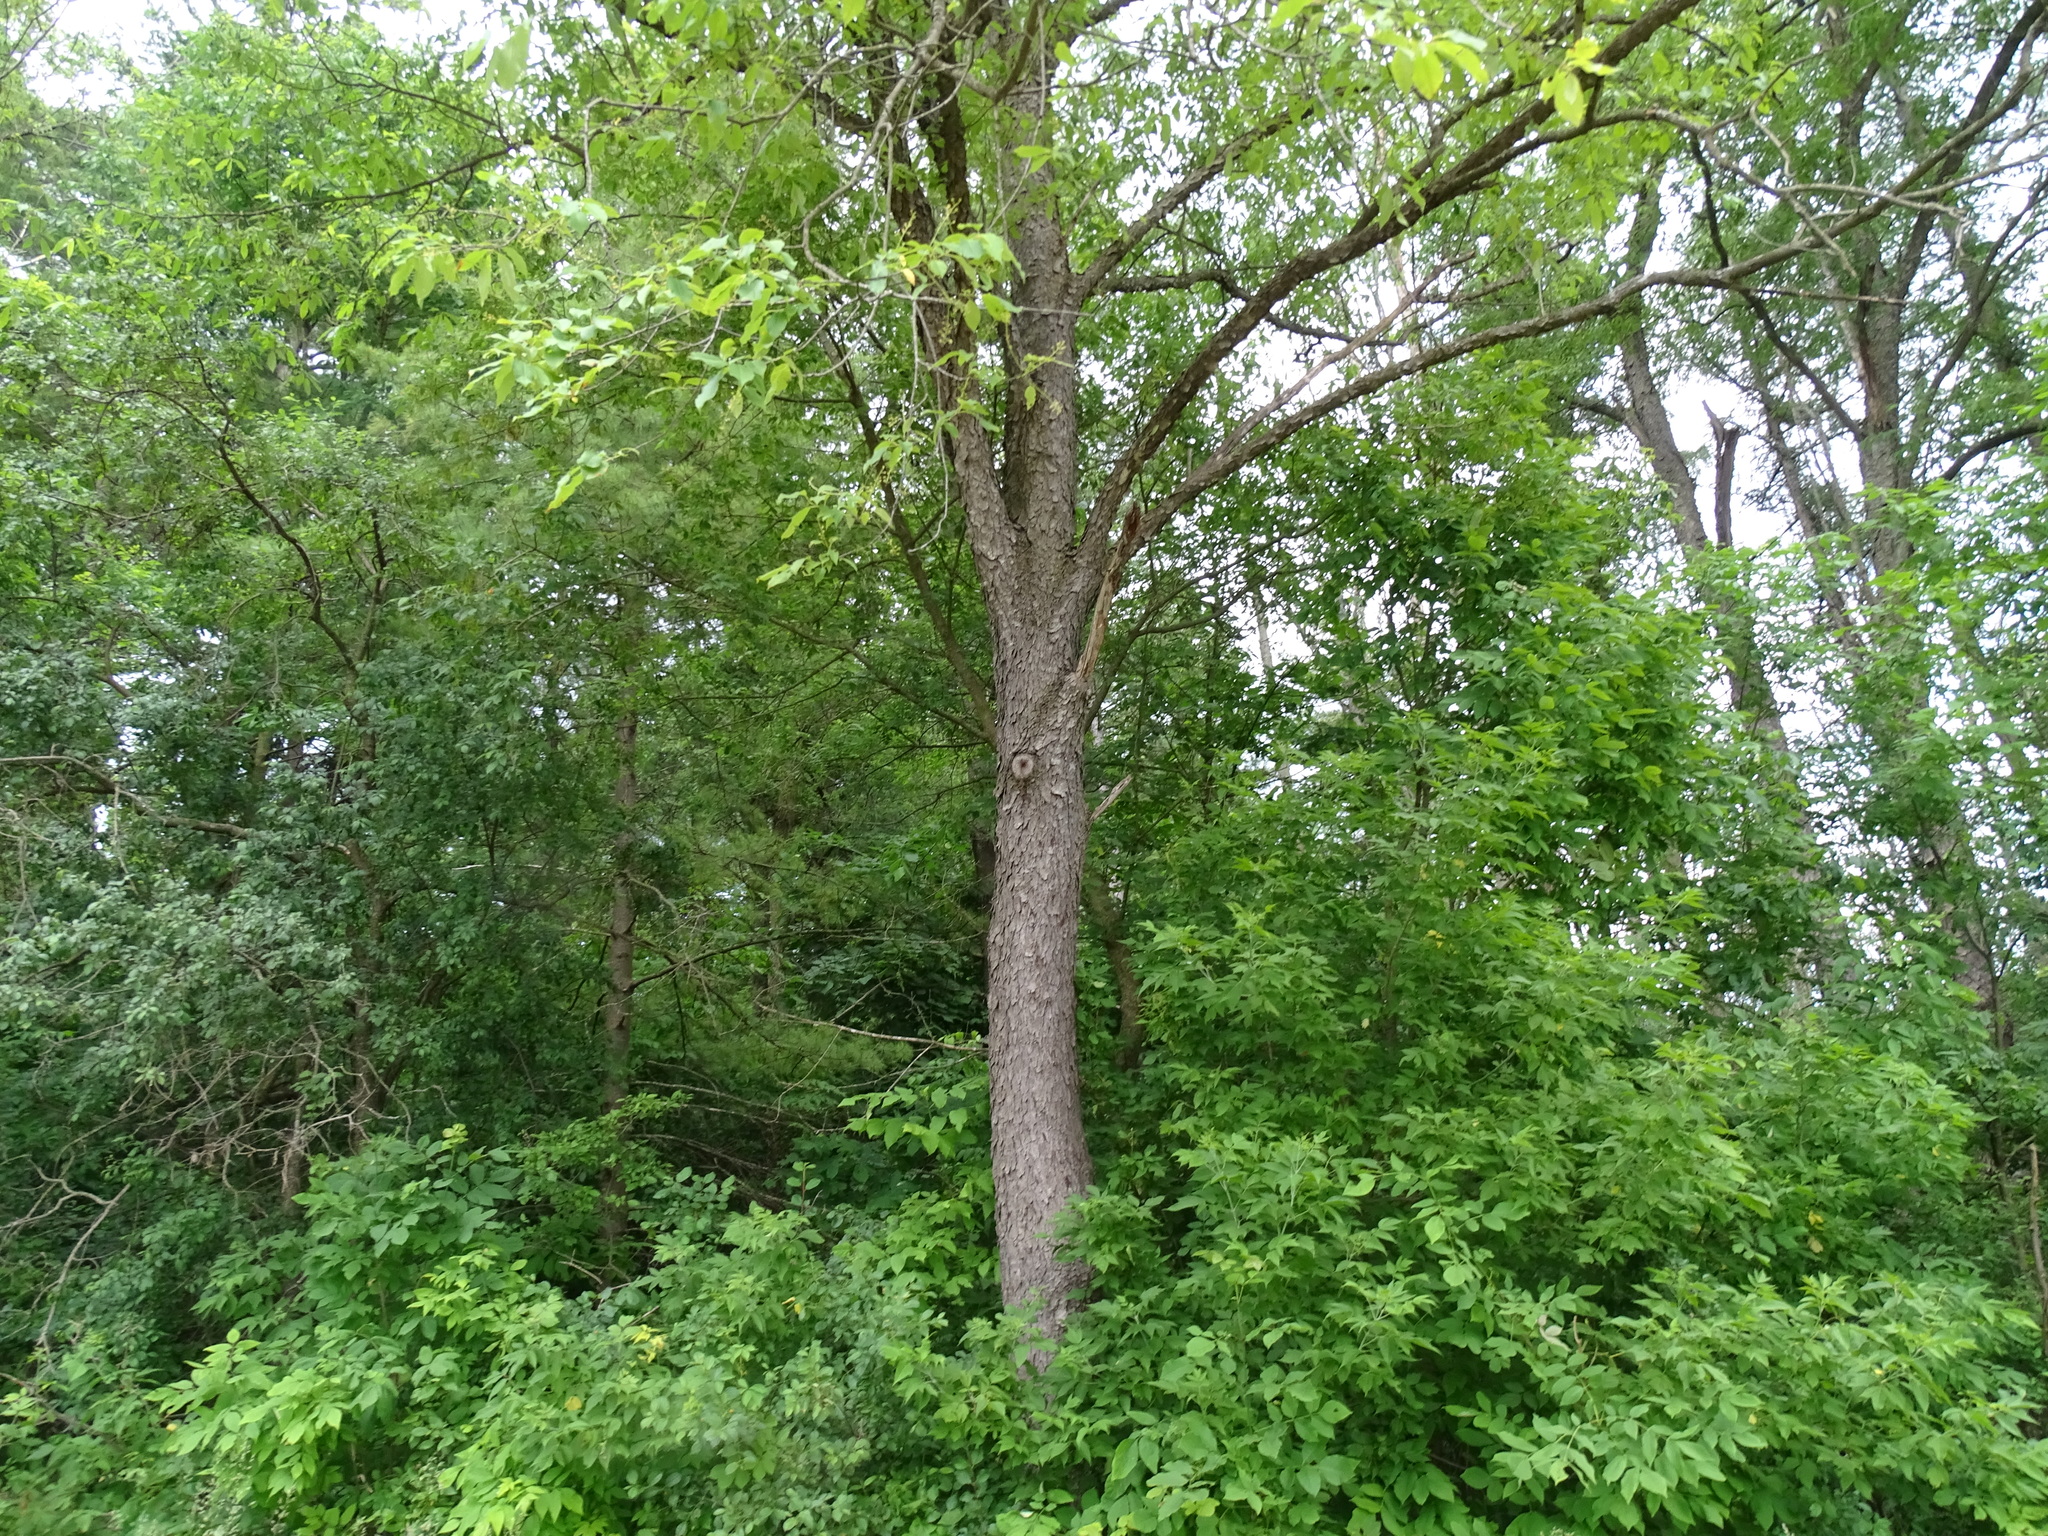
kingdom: Plantae
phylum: Tracheophyta
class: Magnoliopsida
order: Rosales
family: Rosaceae
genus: Prunus
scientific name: Prunus serotina
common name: Black cherry
